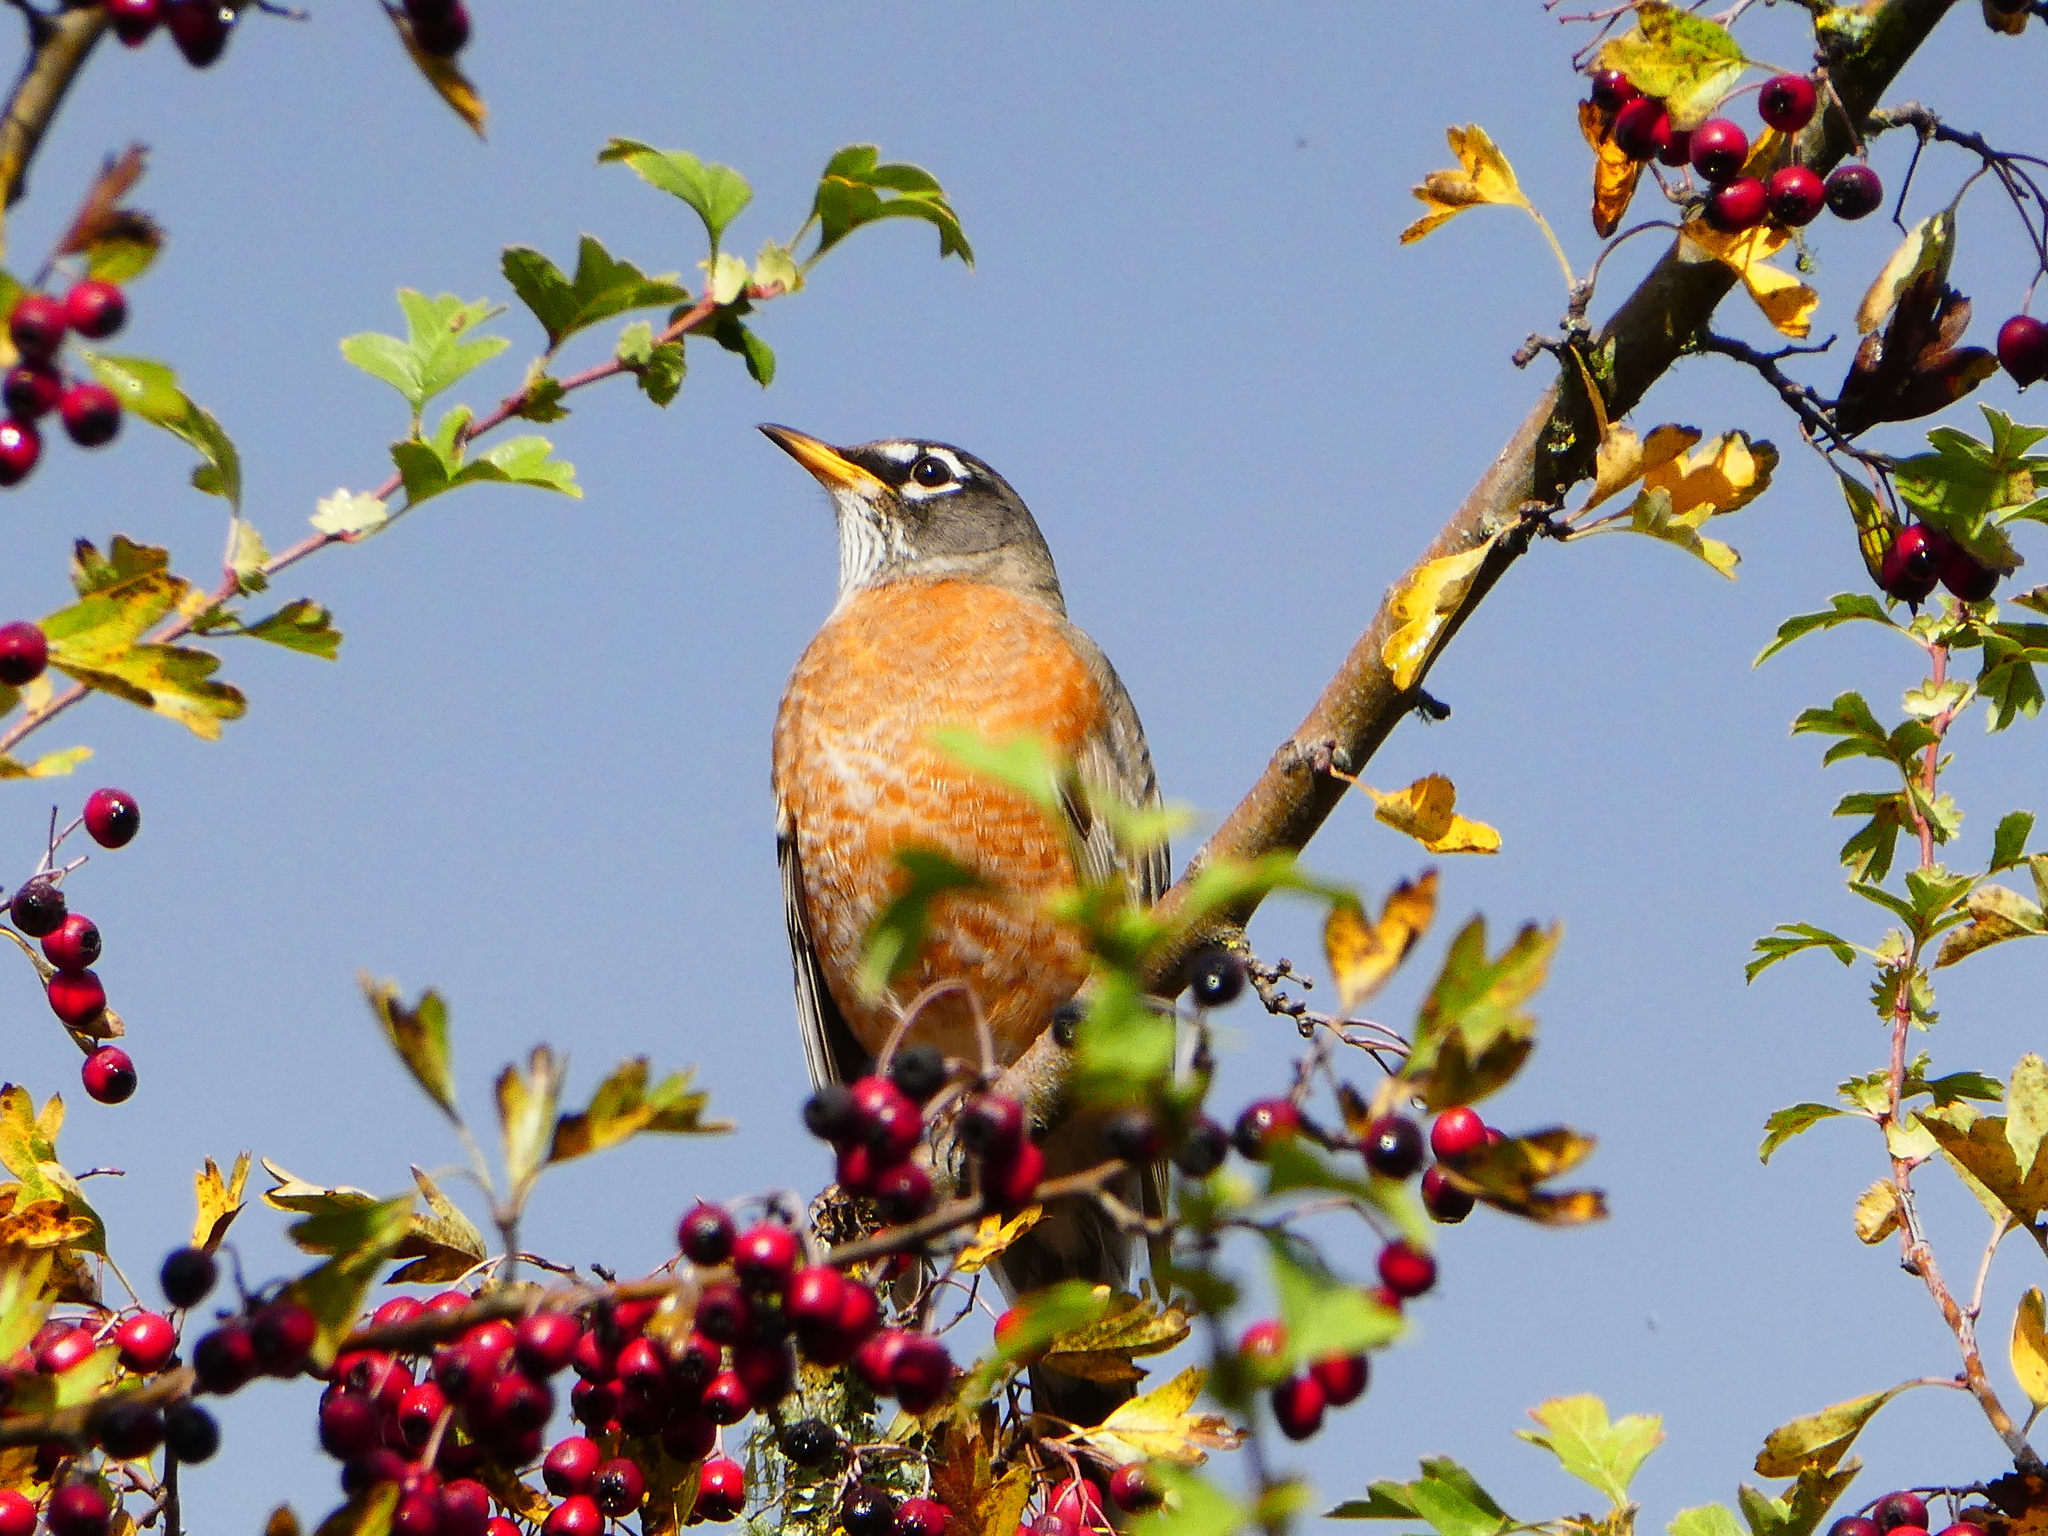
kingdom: Animalia
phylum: Chordata
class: Aves
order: Passeriformes
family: Turdidae
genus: Turdus
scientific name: Turdus migratorius
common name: American robin
